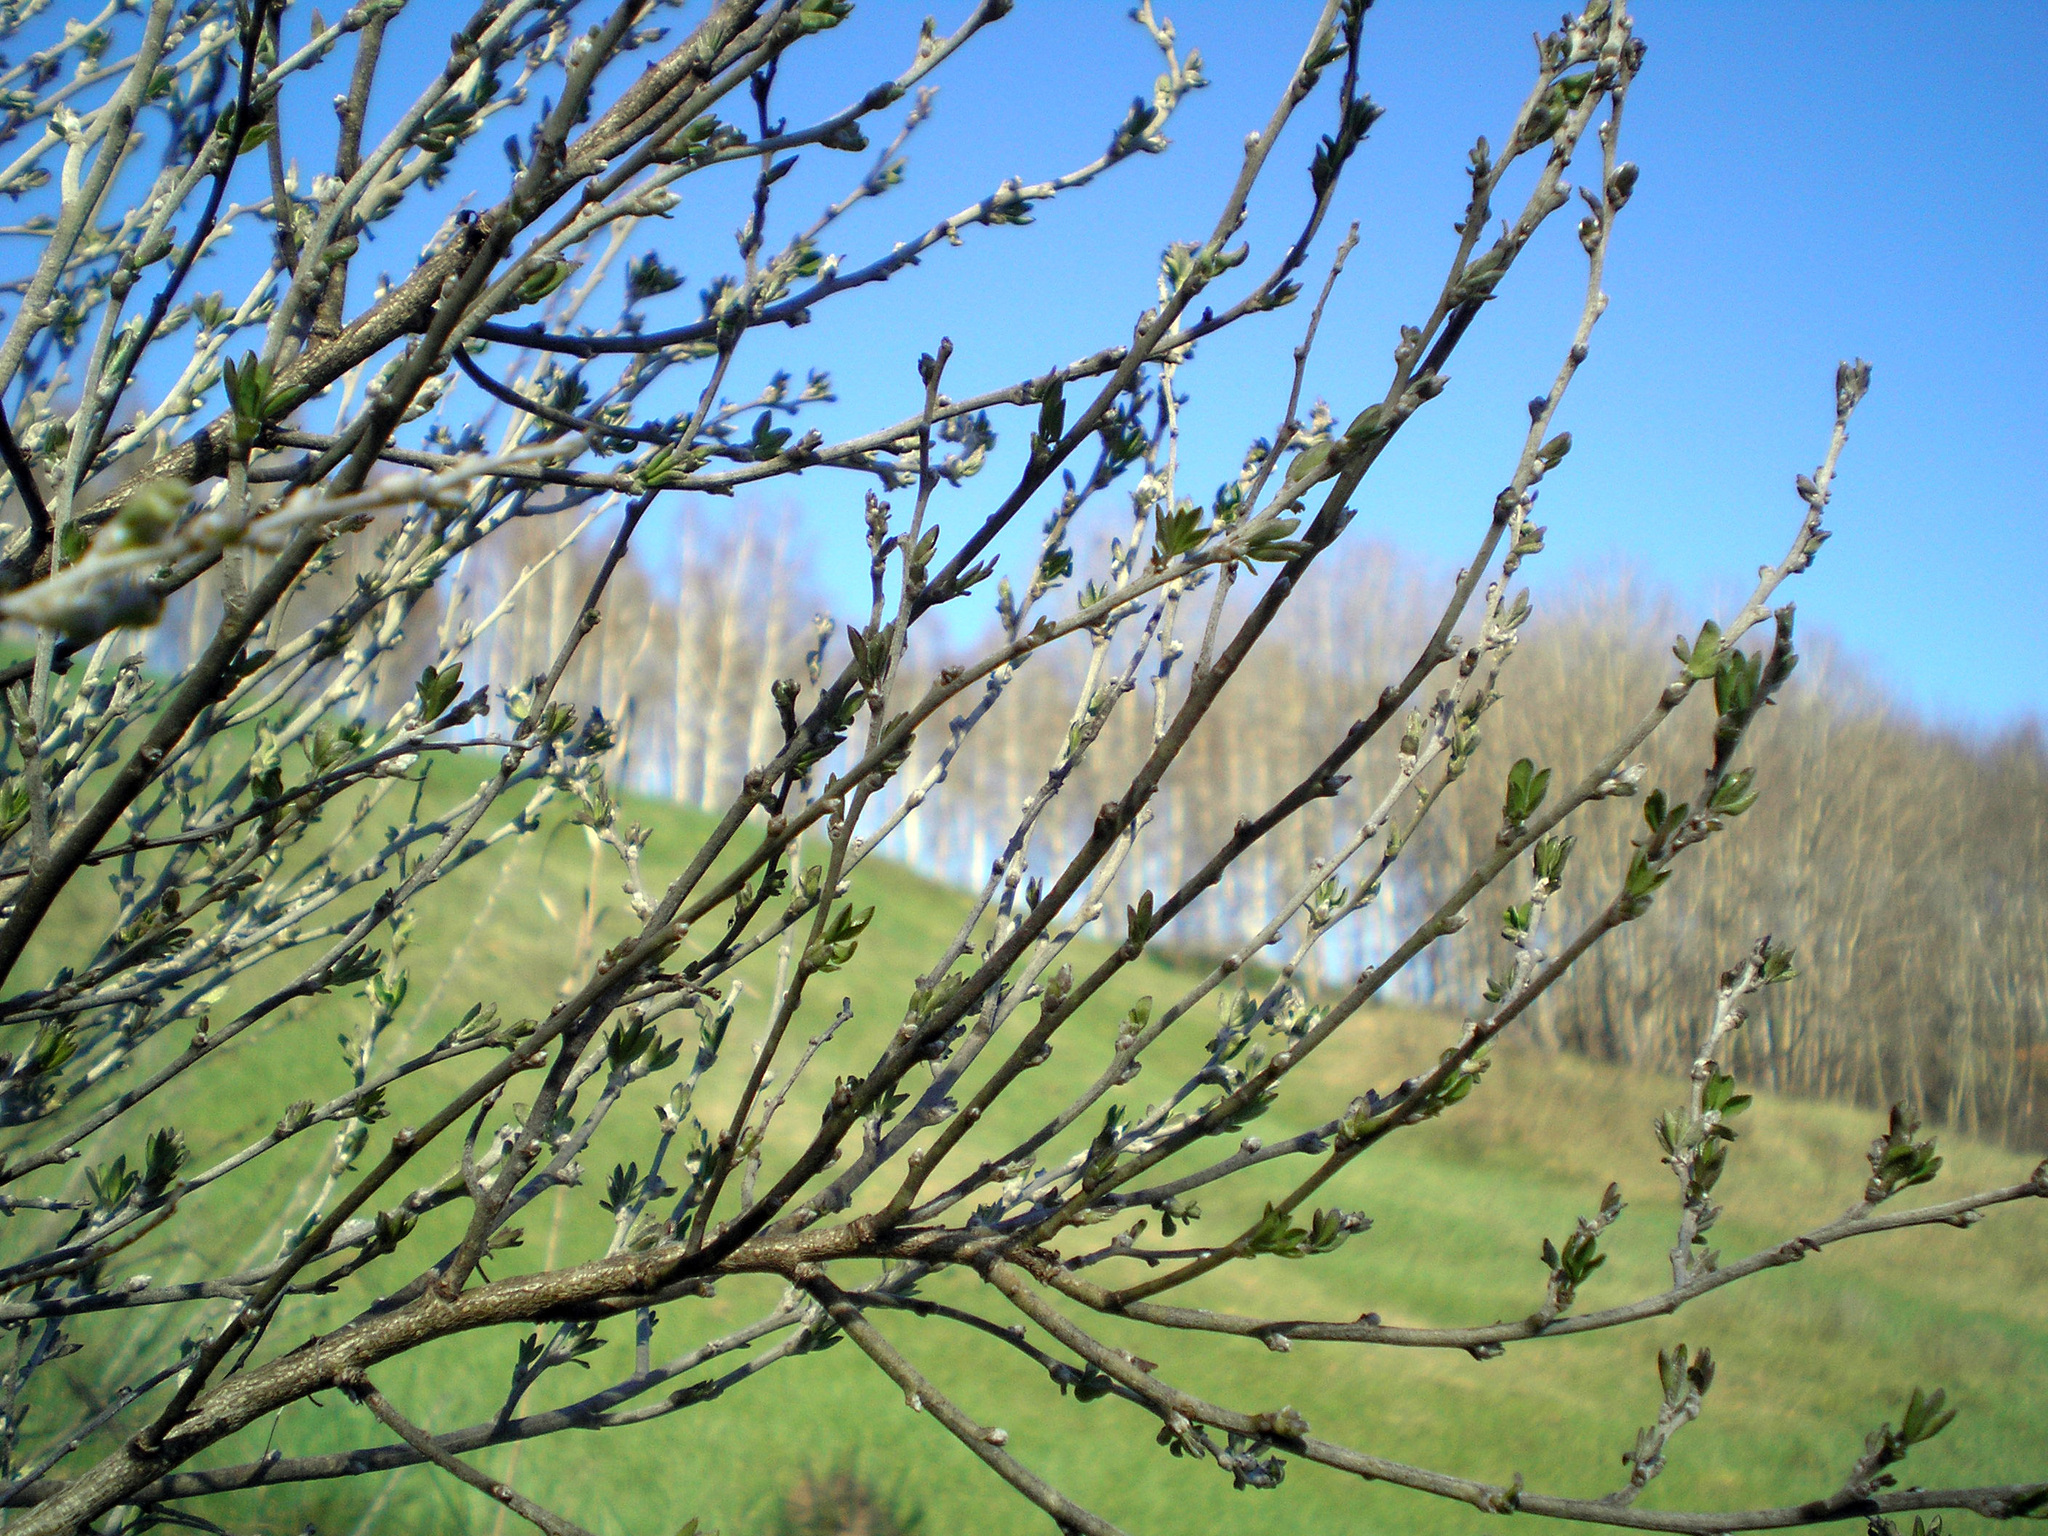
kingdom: Plantae
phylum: Tracheophyta
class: Magnoliopsida
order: Fabales
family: Fabaceae
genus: Chamaecytisus
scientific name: Chamaecytisus ruthenicus
